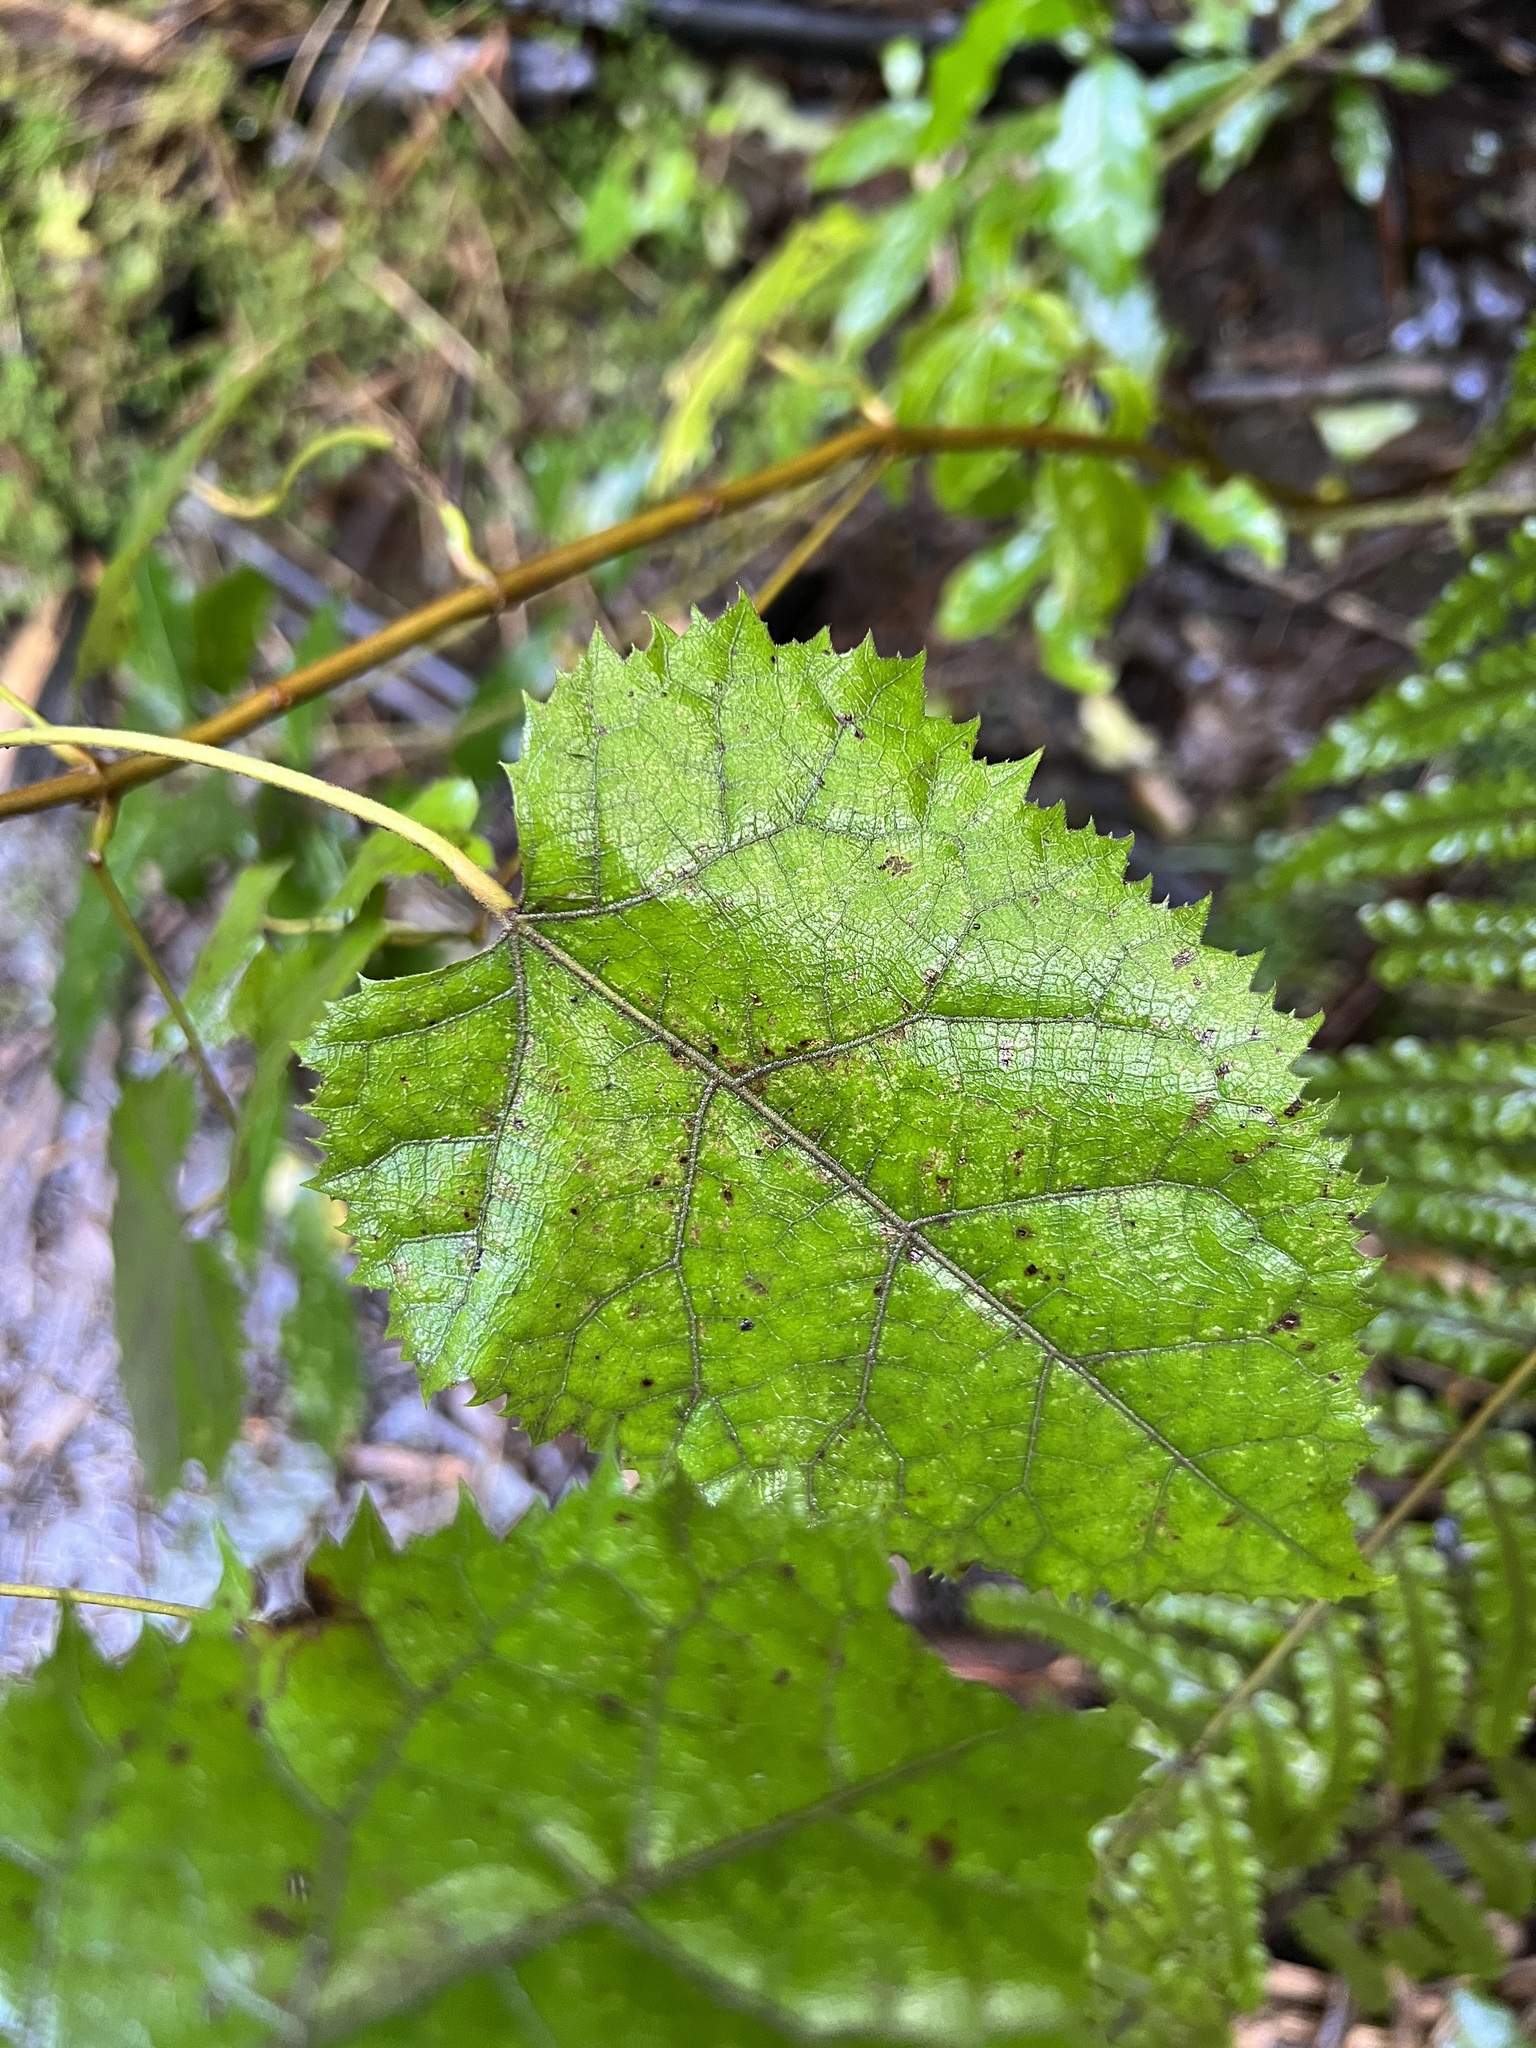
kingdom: Plantae
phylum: Tracheophyta
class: Magnoliopsida
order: Oxalidales
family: Elaeocarpaceae
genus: Aristotelia
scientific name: Aristotelia serrata
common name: New zealand wineberry
